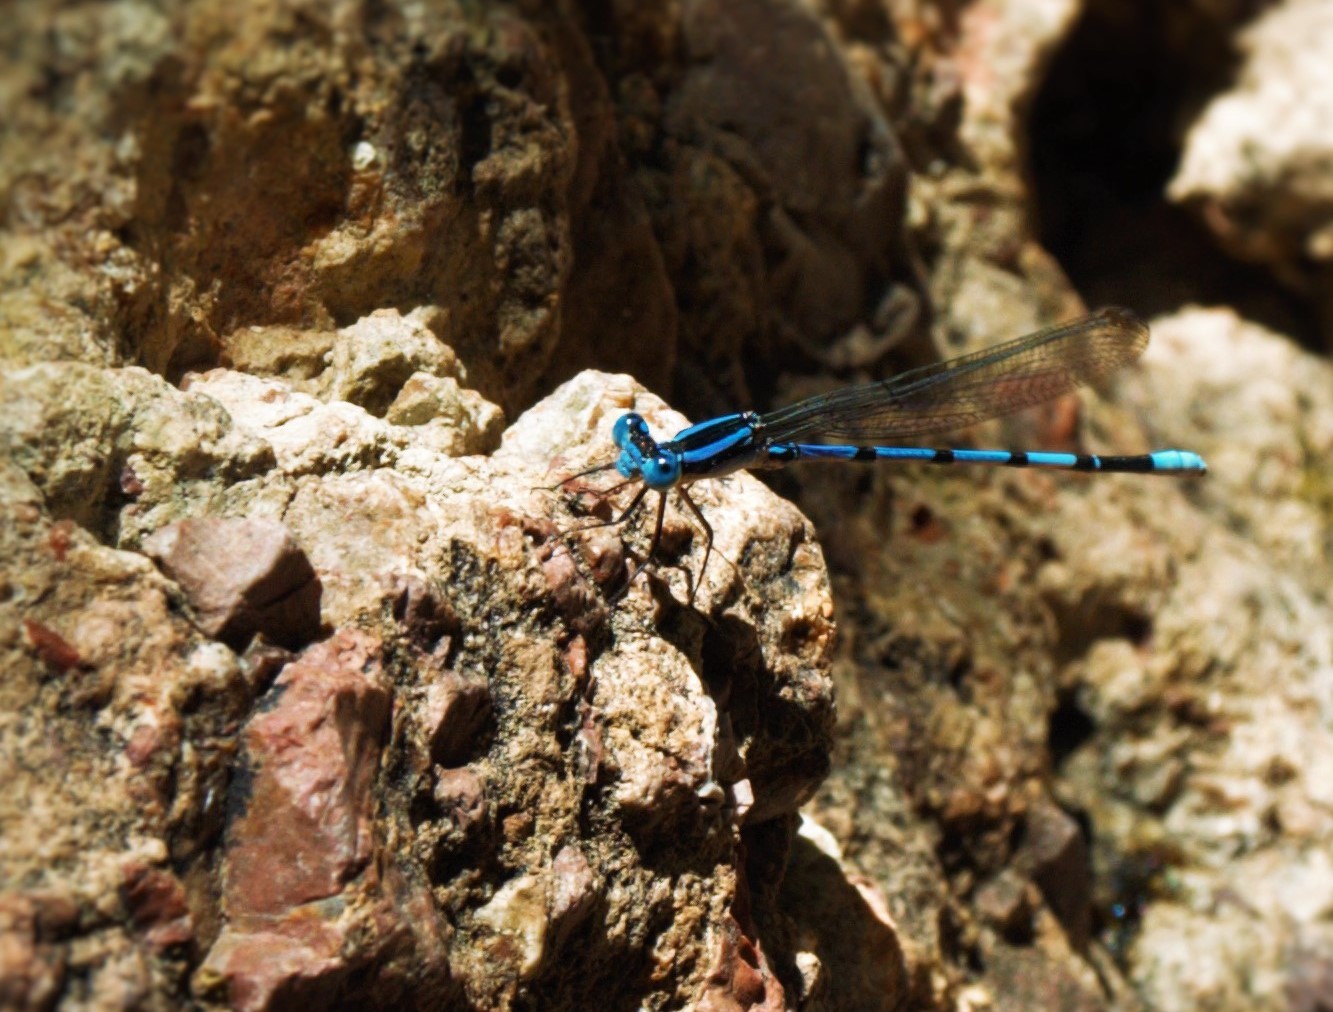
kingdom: Animalia
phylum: Arthropoda
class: Insecta
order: Odonata
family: Coenagrionidae
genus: Argia
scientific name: Argia tarascana
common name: Tarascan dancer
